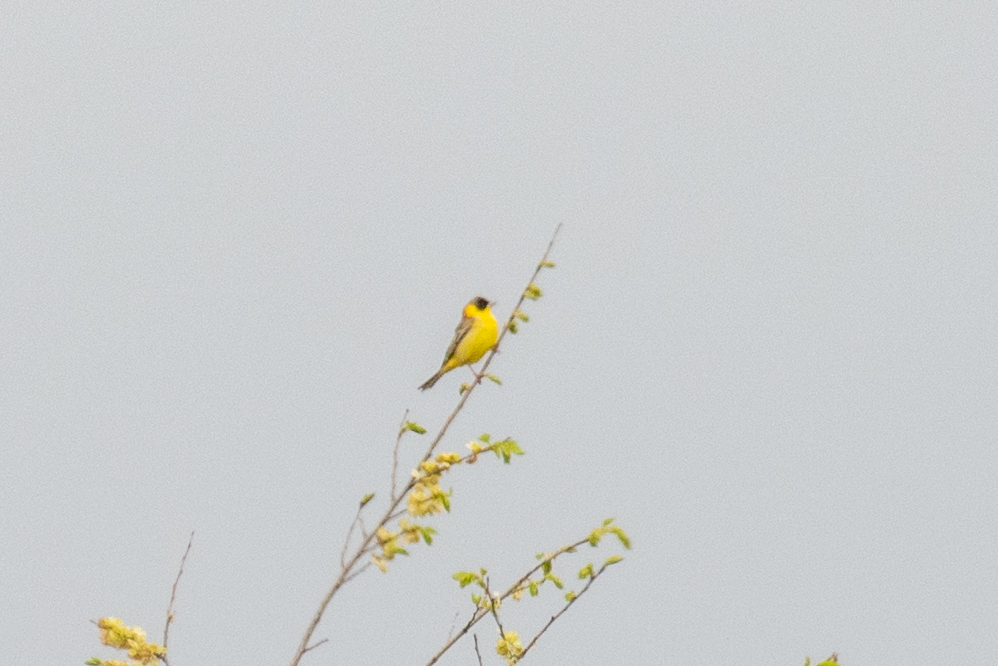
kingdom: Animalia
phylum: Chordata
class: Aves
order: Passeriformes
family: Emberizidae
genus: Emberiza
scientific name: Emberiza melanocephala
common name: Black-headed bunting
